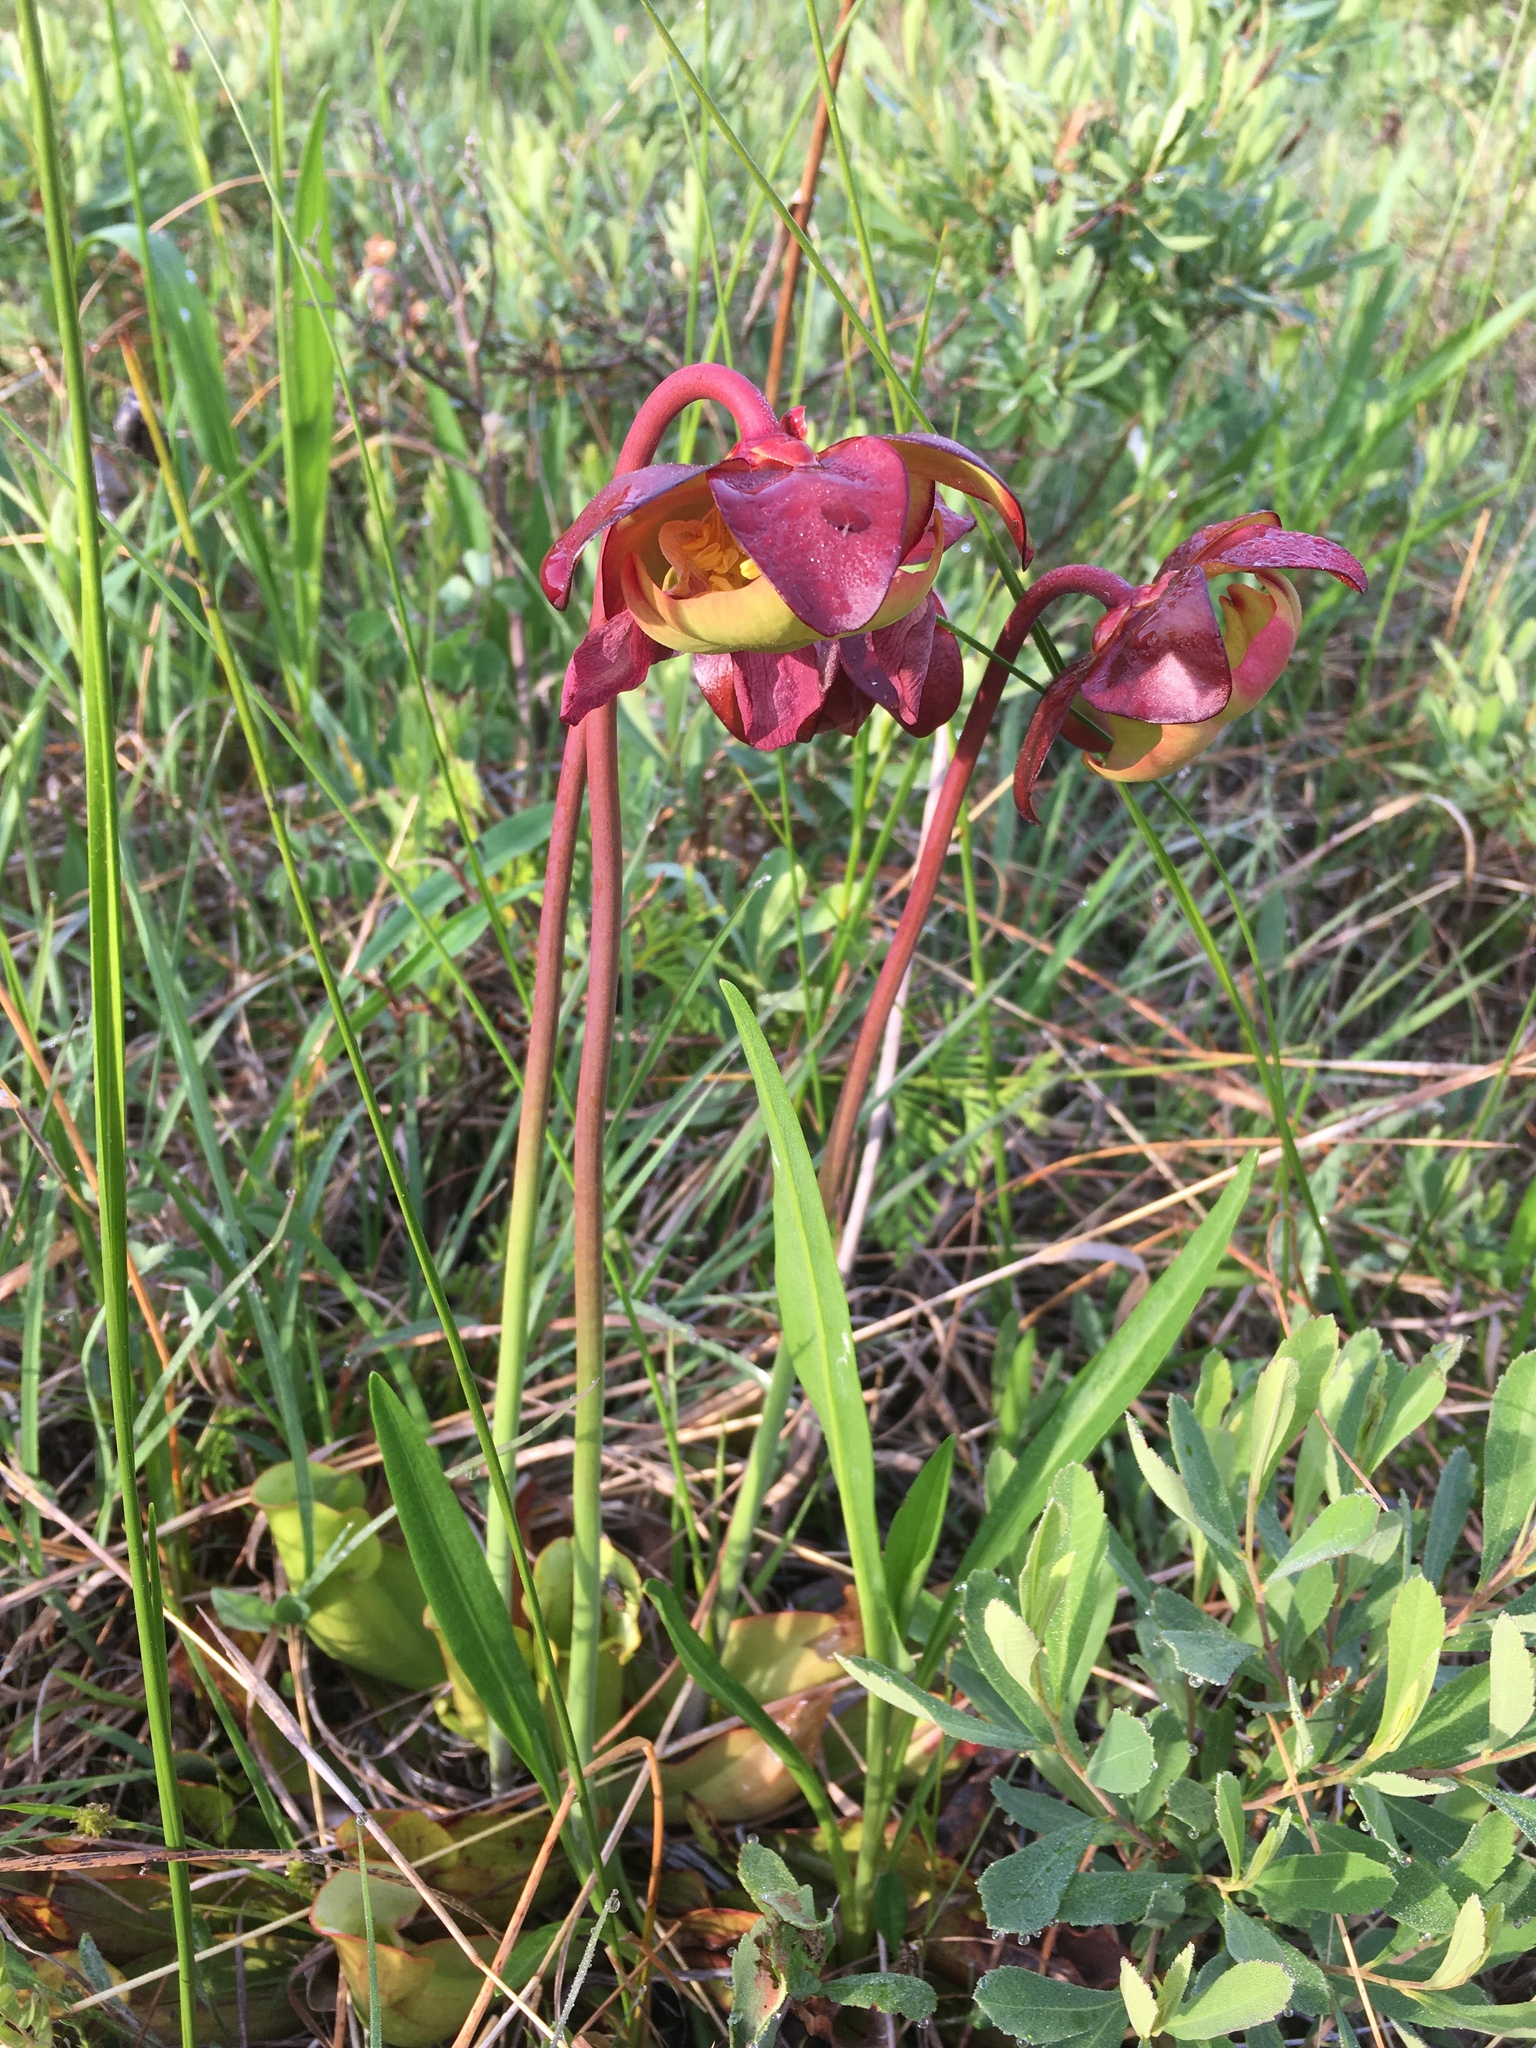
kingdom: Plantae
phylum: Tracheophyta
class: Magnoliopsida
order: Ericales
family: Sarraceniaceae
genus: Sarracenia
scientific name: Sarracenia purpurea
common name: Pitcherplant
